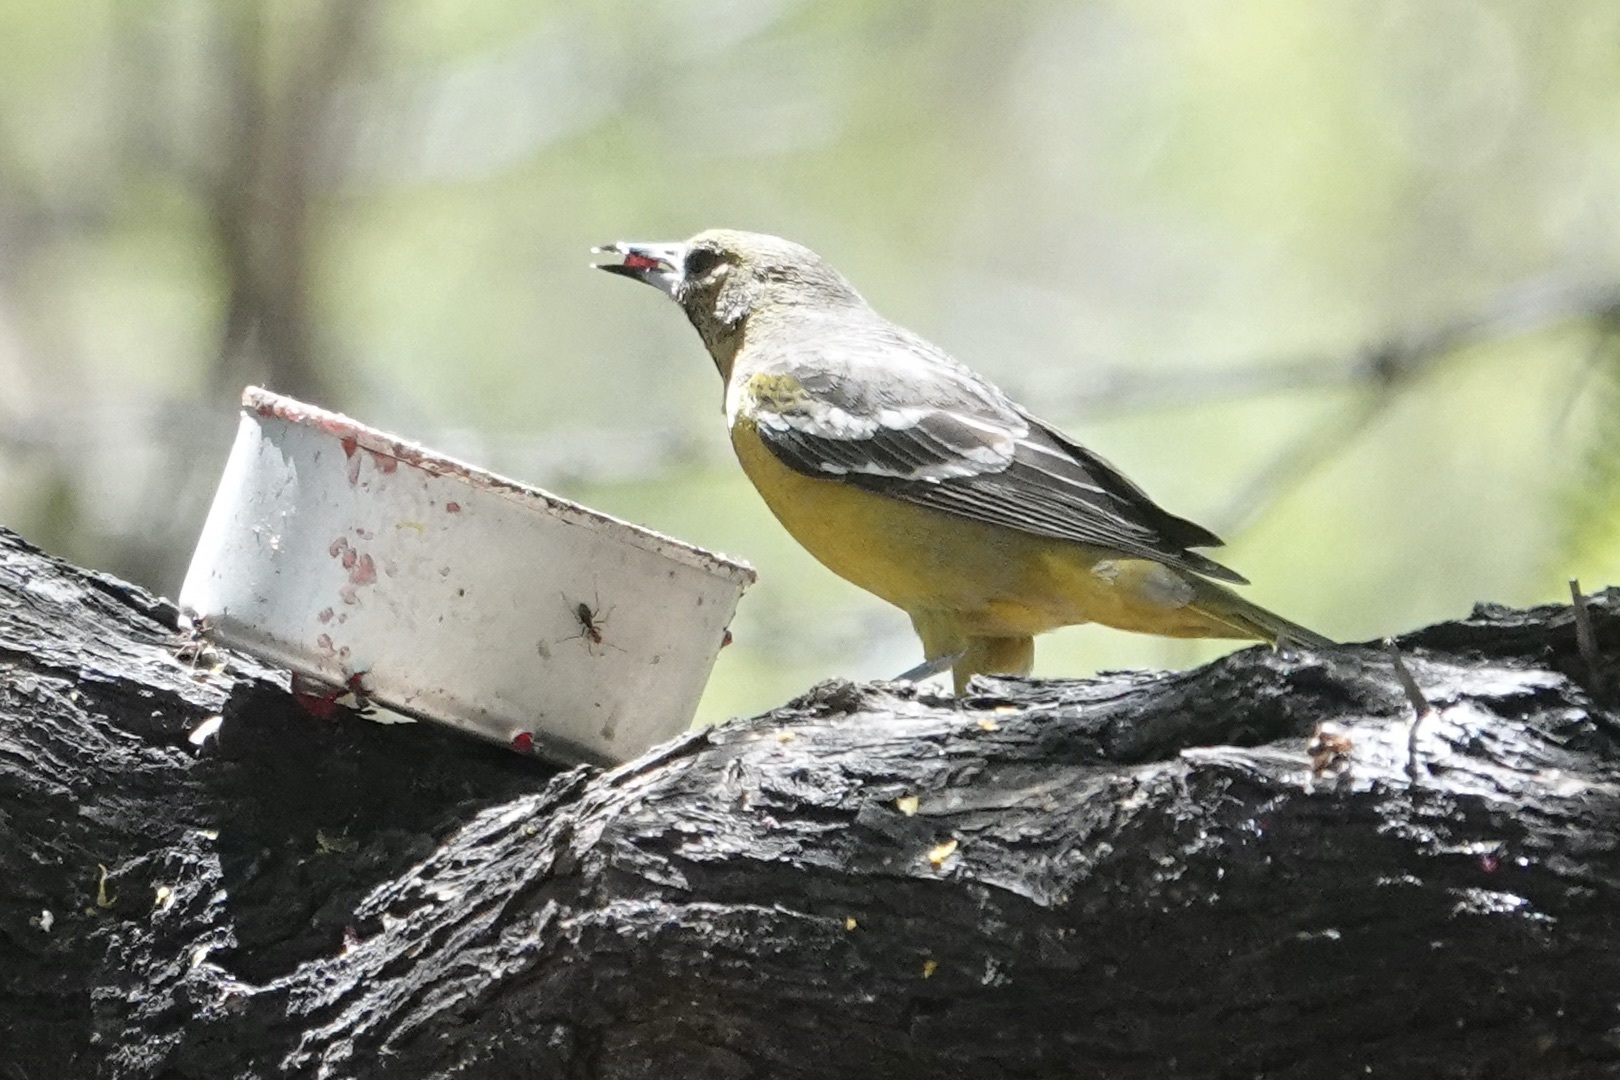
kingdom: Animalia
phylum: Chordata
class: Aves
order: Passeriformes
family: Icteridae
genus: Icterus
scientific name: Icterus parisorum
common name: Scott's oriole
